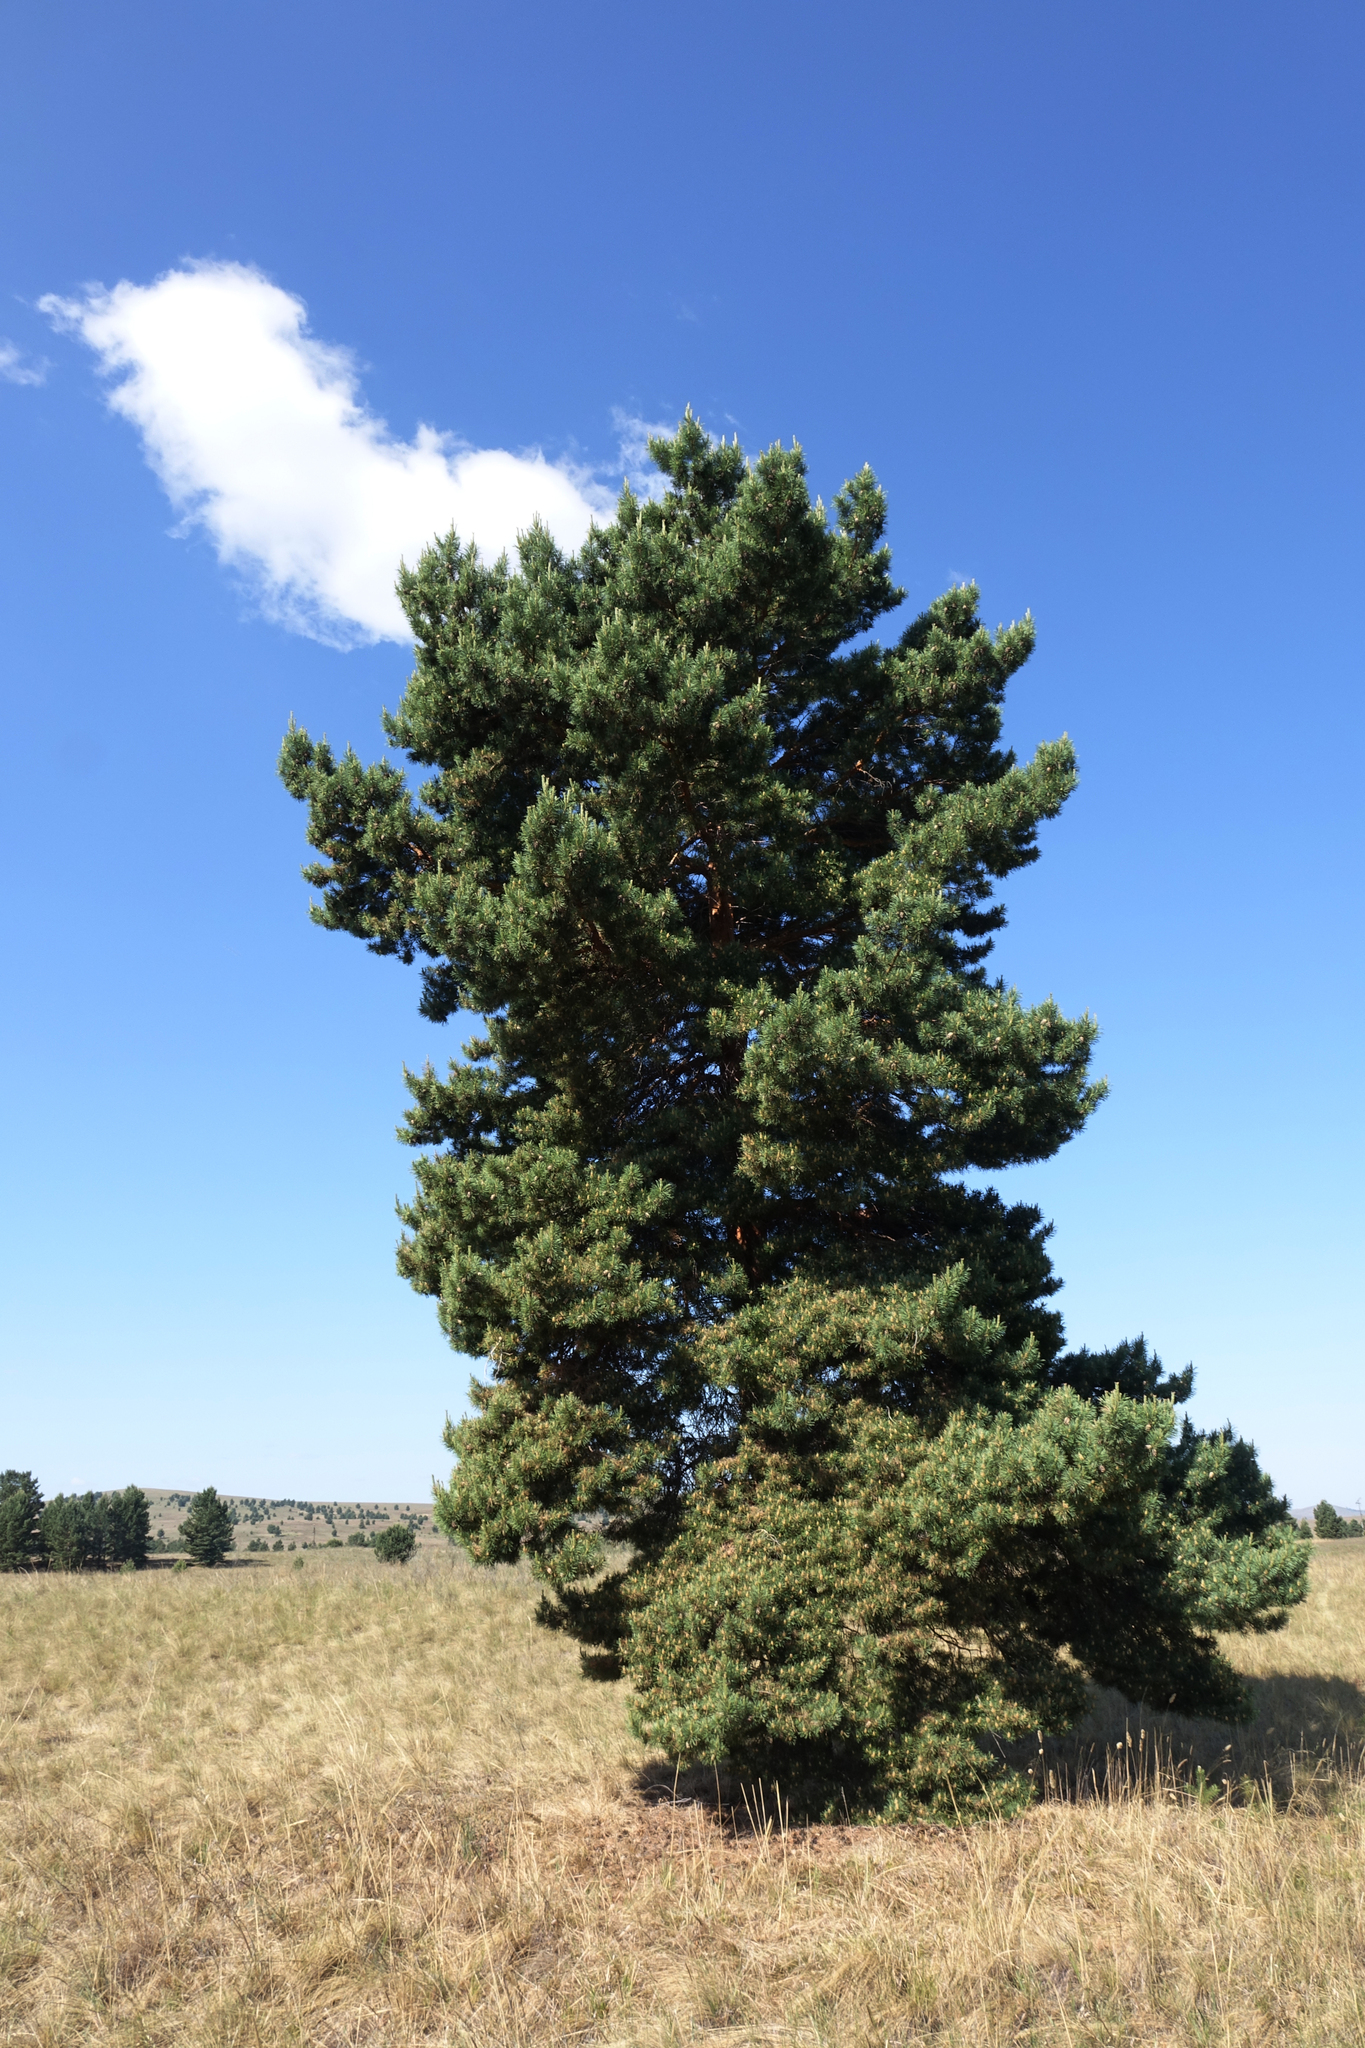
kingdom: Plantae
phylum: Tracheophyta
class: Pinopsida
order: Pinales
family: Pinaceae
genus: Pinus
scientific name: Pinus sylvestris
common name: Scots pine
